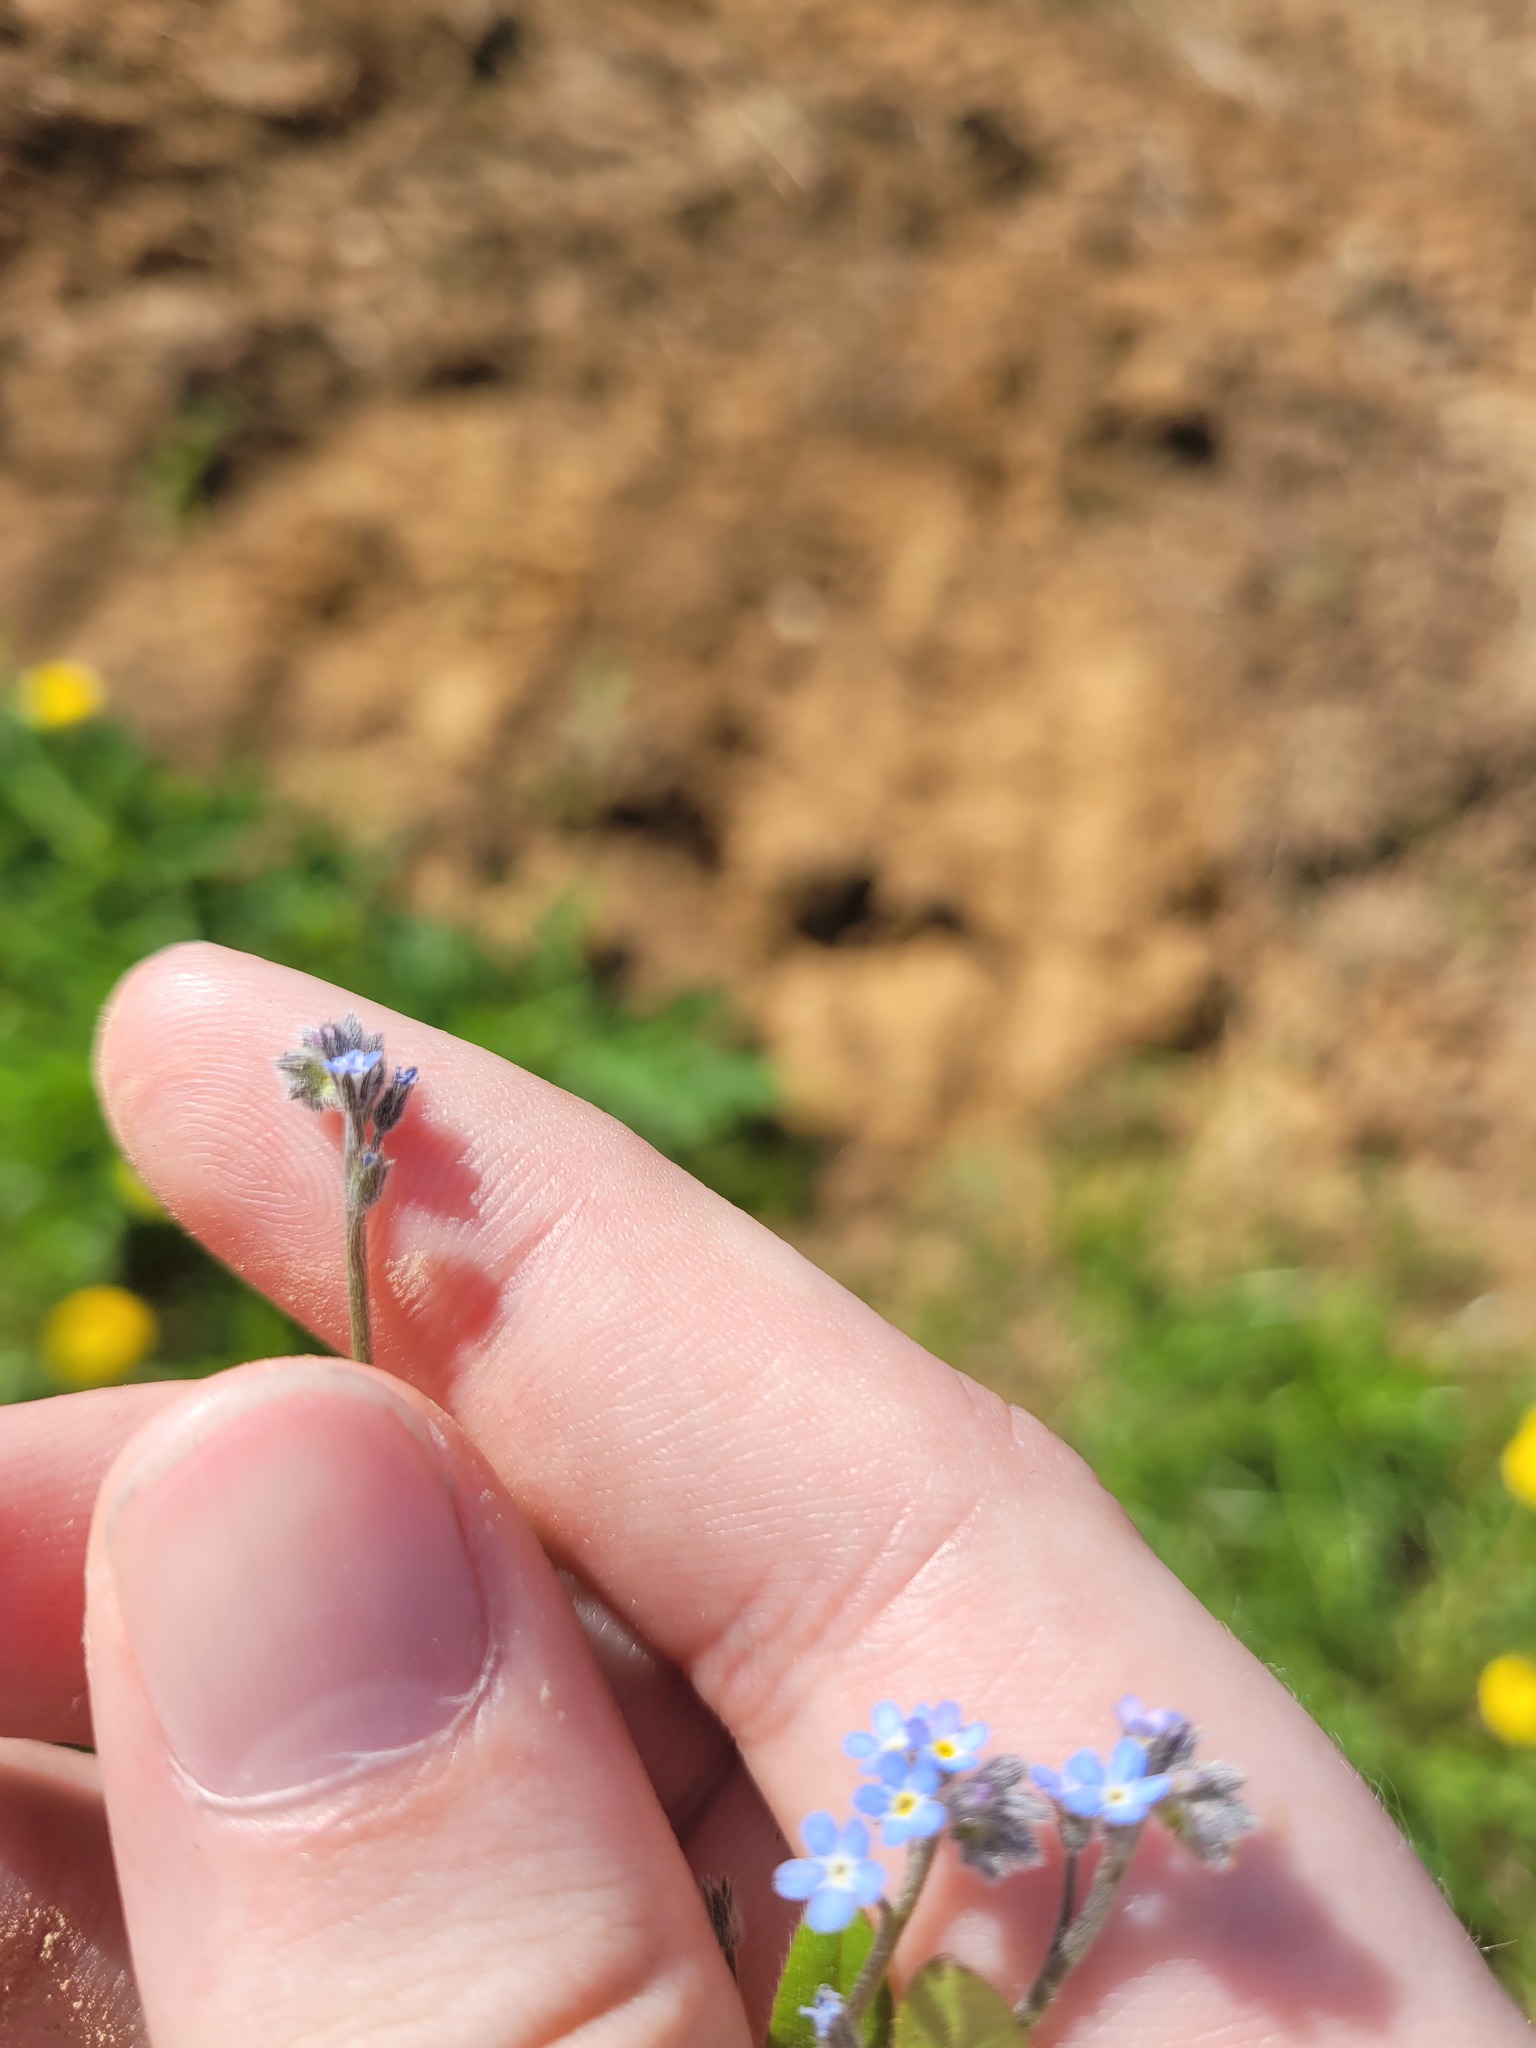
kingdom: Plantae
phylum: Tracheophyta
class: Magnoliopsida
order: Boraginales
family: Boraginaceae
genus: Myosotis
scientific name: Myosotis arvensis
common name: Field forget-me-not
